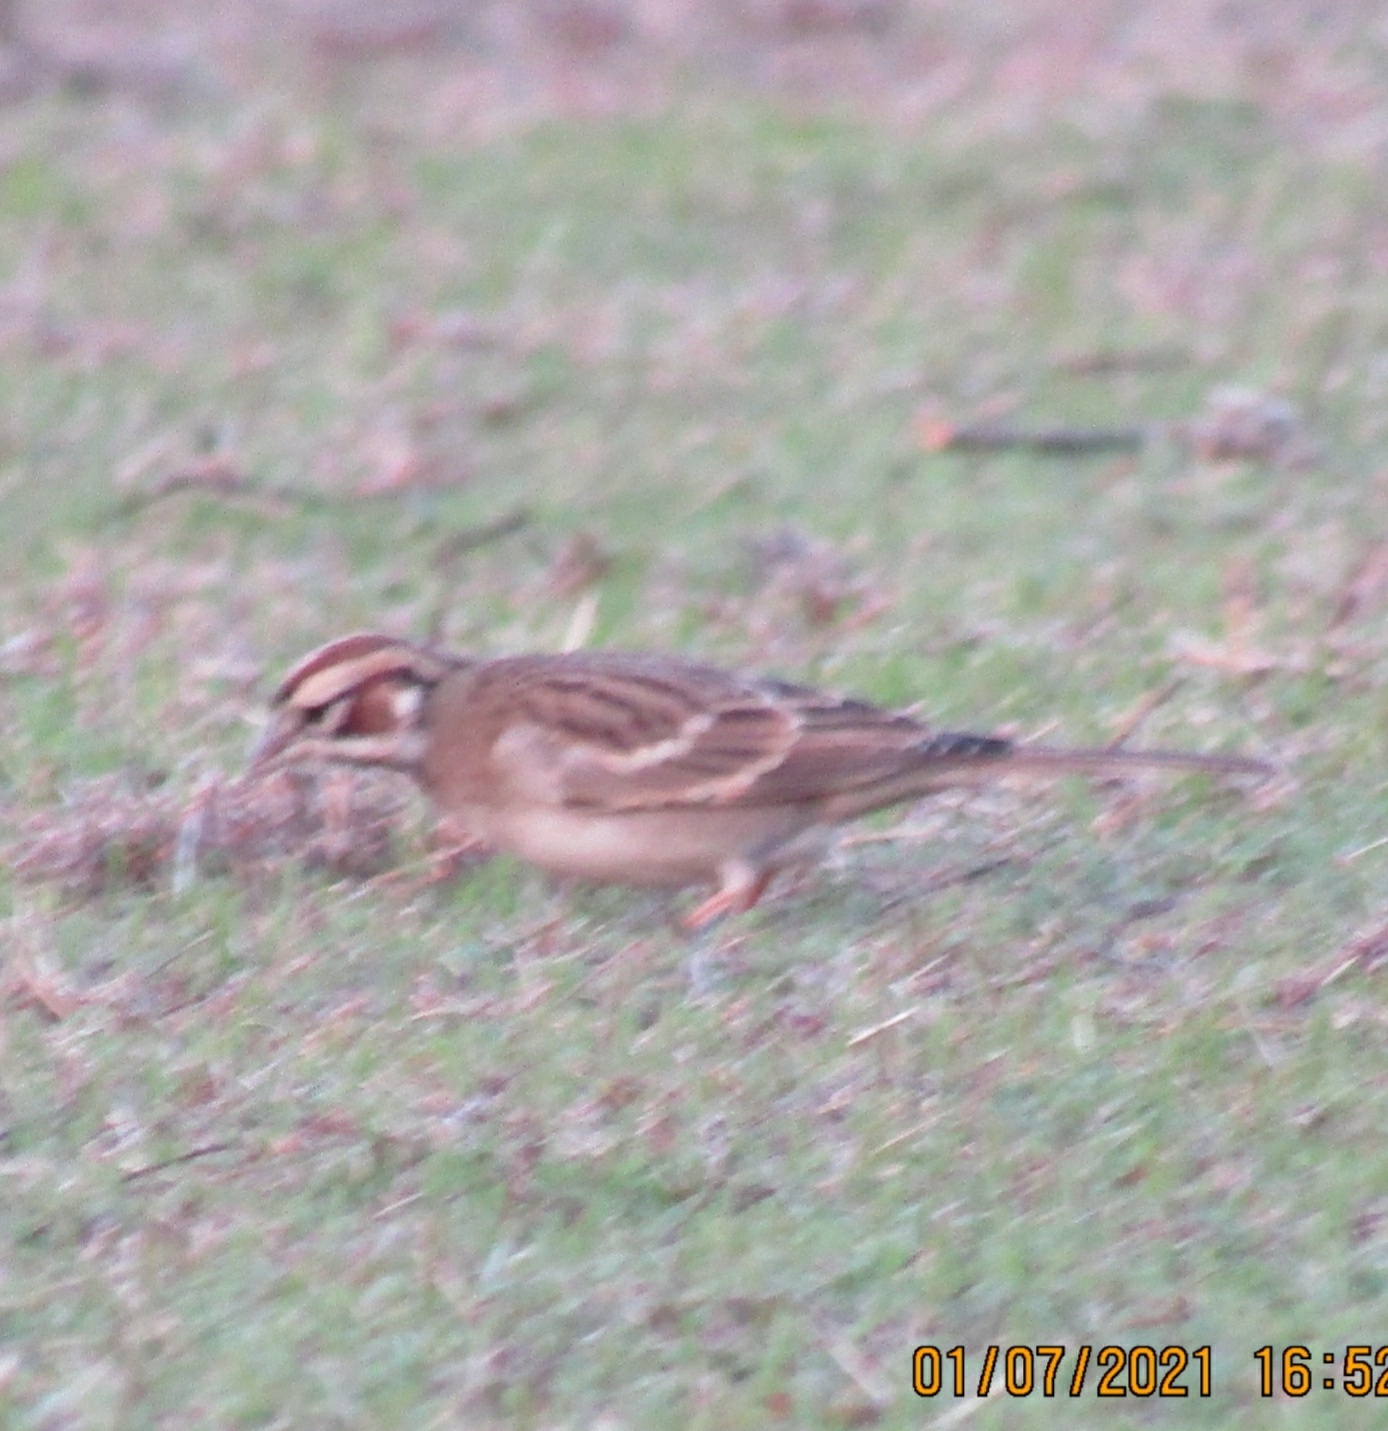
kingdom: Animalia
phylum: Chordata
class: Aves
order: Passeriformes
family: Passerellidae
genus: Chondestes
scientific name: Chondestes grammacus
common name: Lark sparrow
